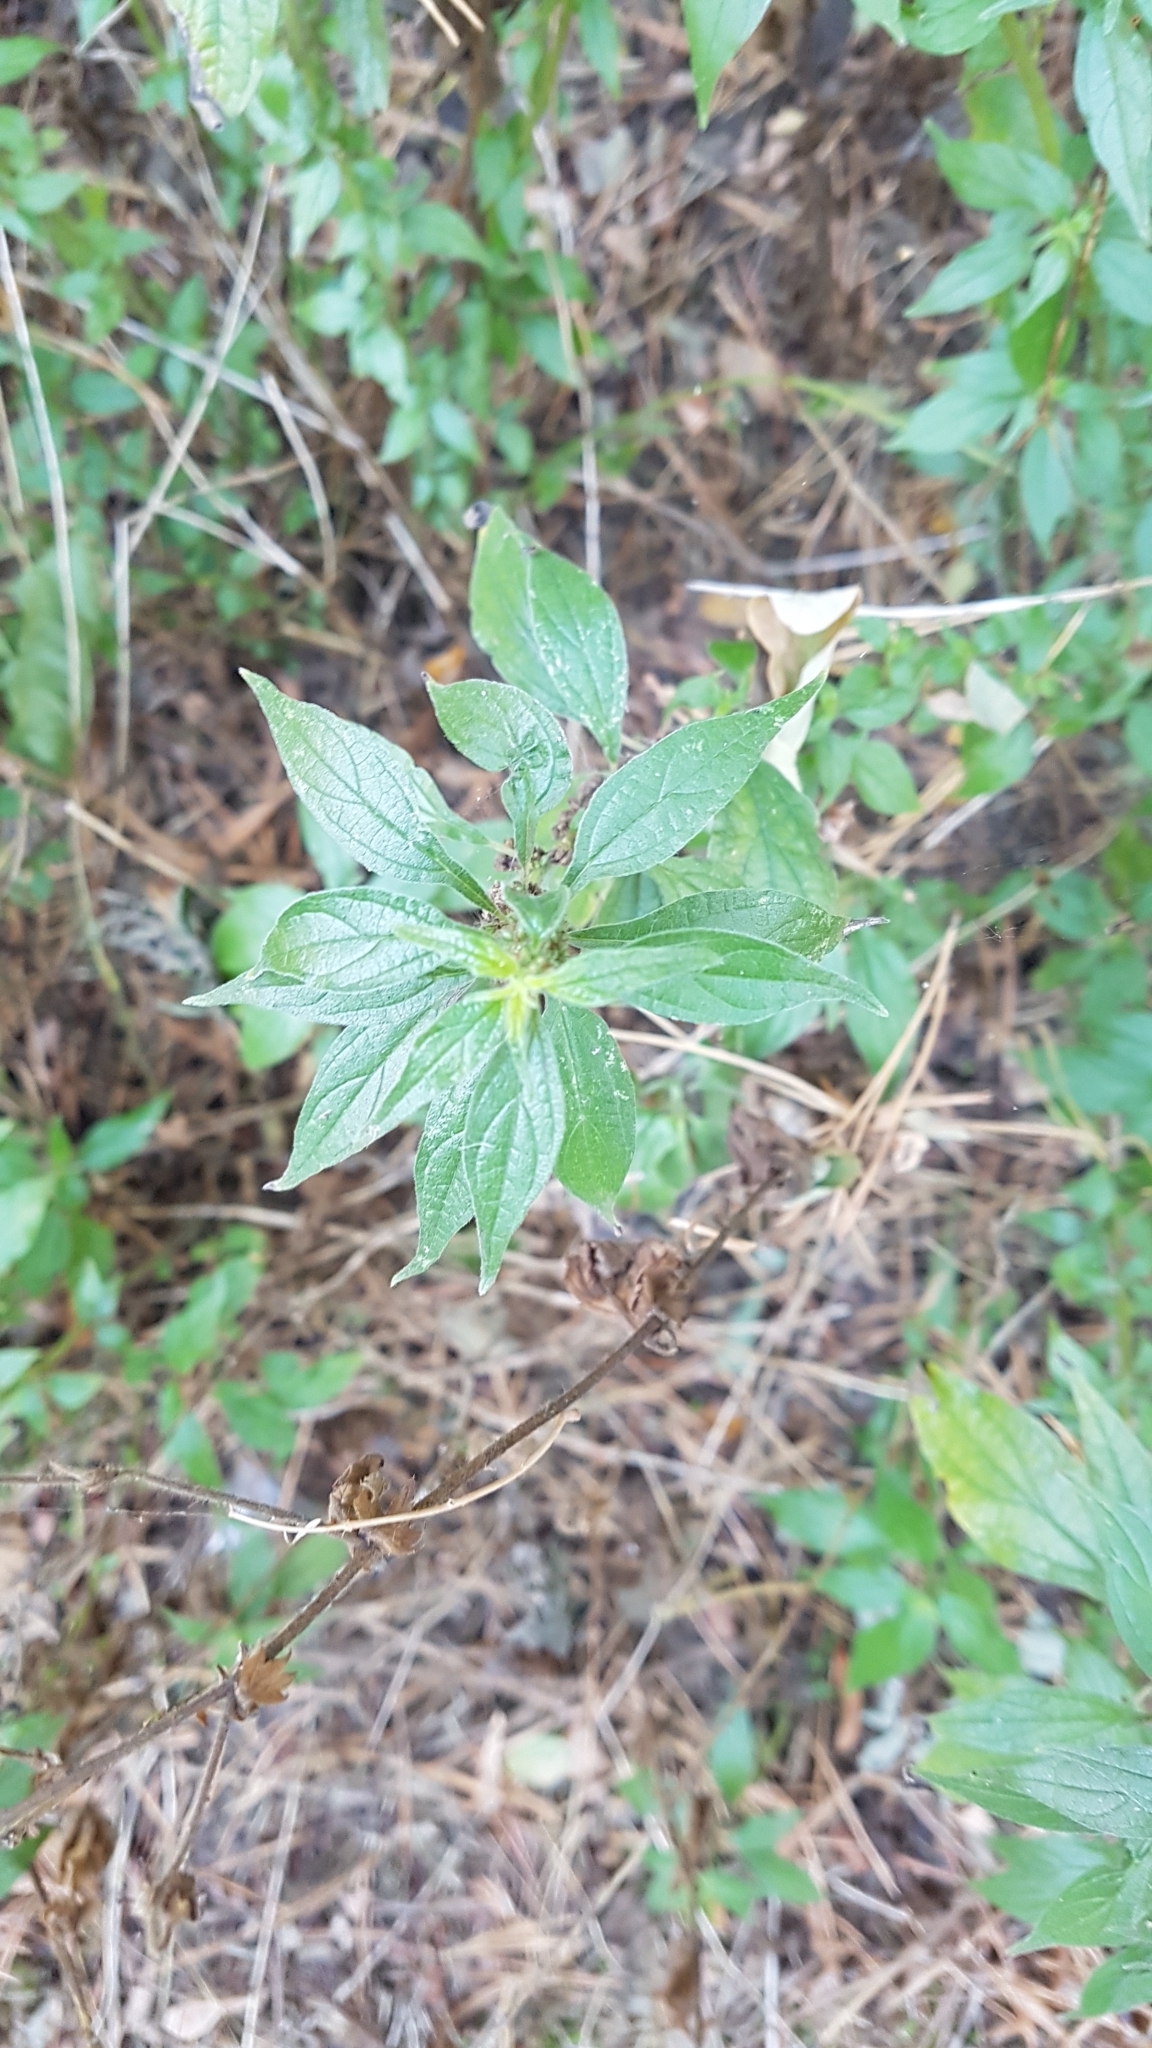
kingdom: Plantae
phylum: Tracheophyta
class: Magnoliopsida
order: Rosales
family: Urticaceae
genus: Parietaria
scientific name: Parietaria officinalis
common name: Eastern pellitory-of-the-wall
